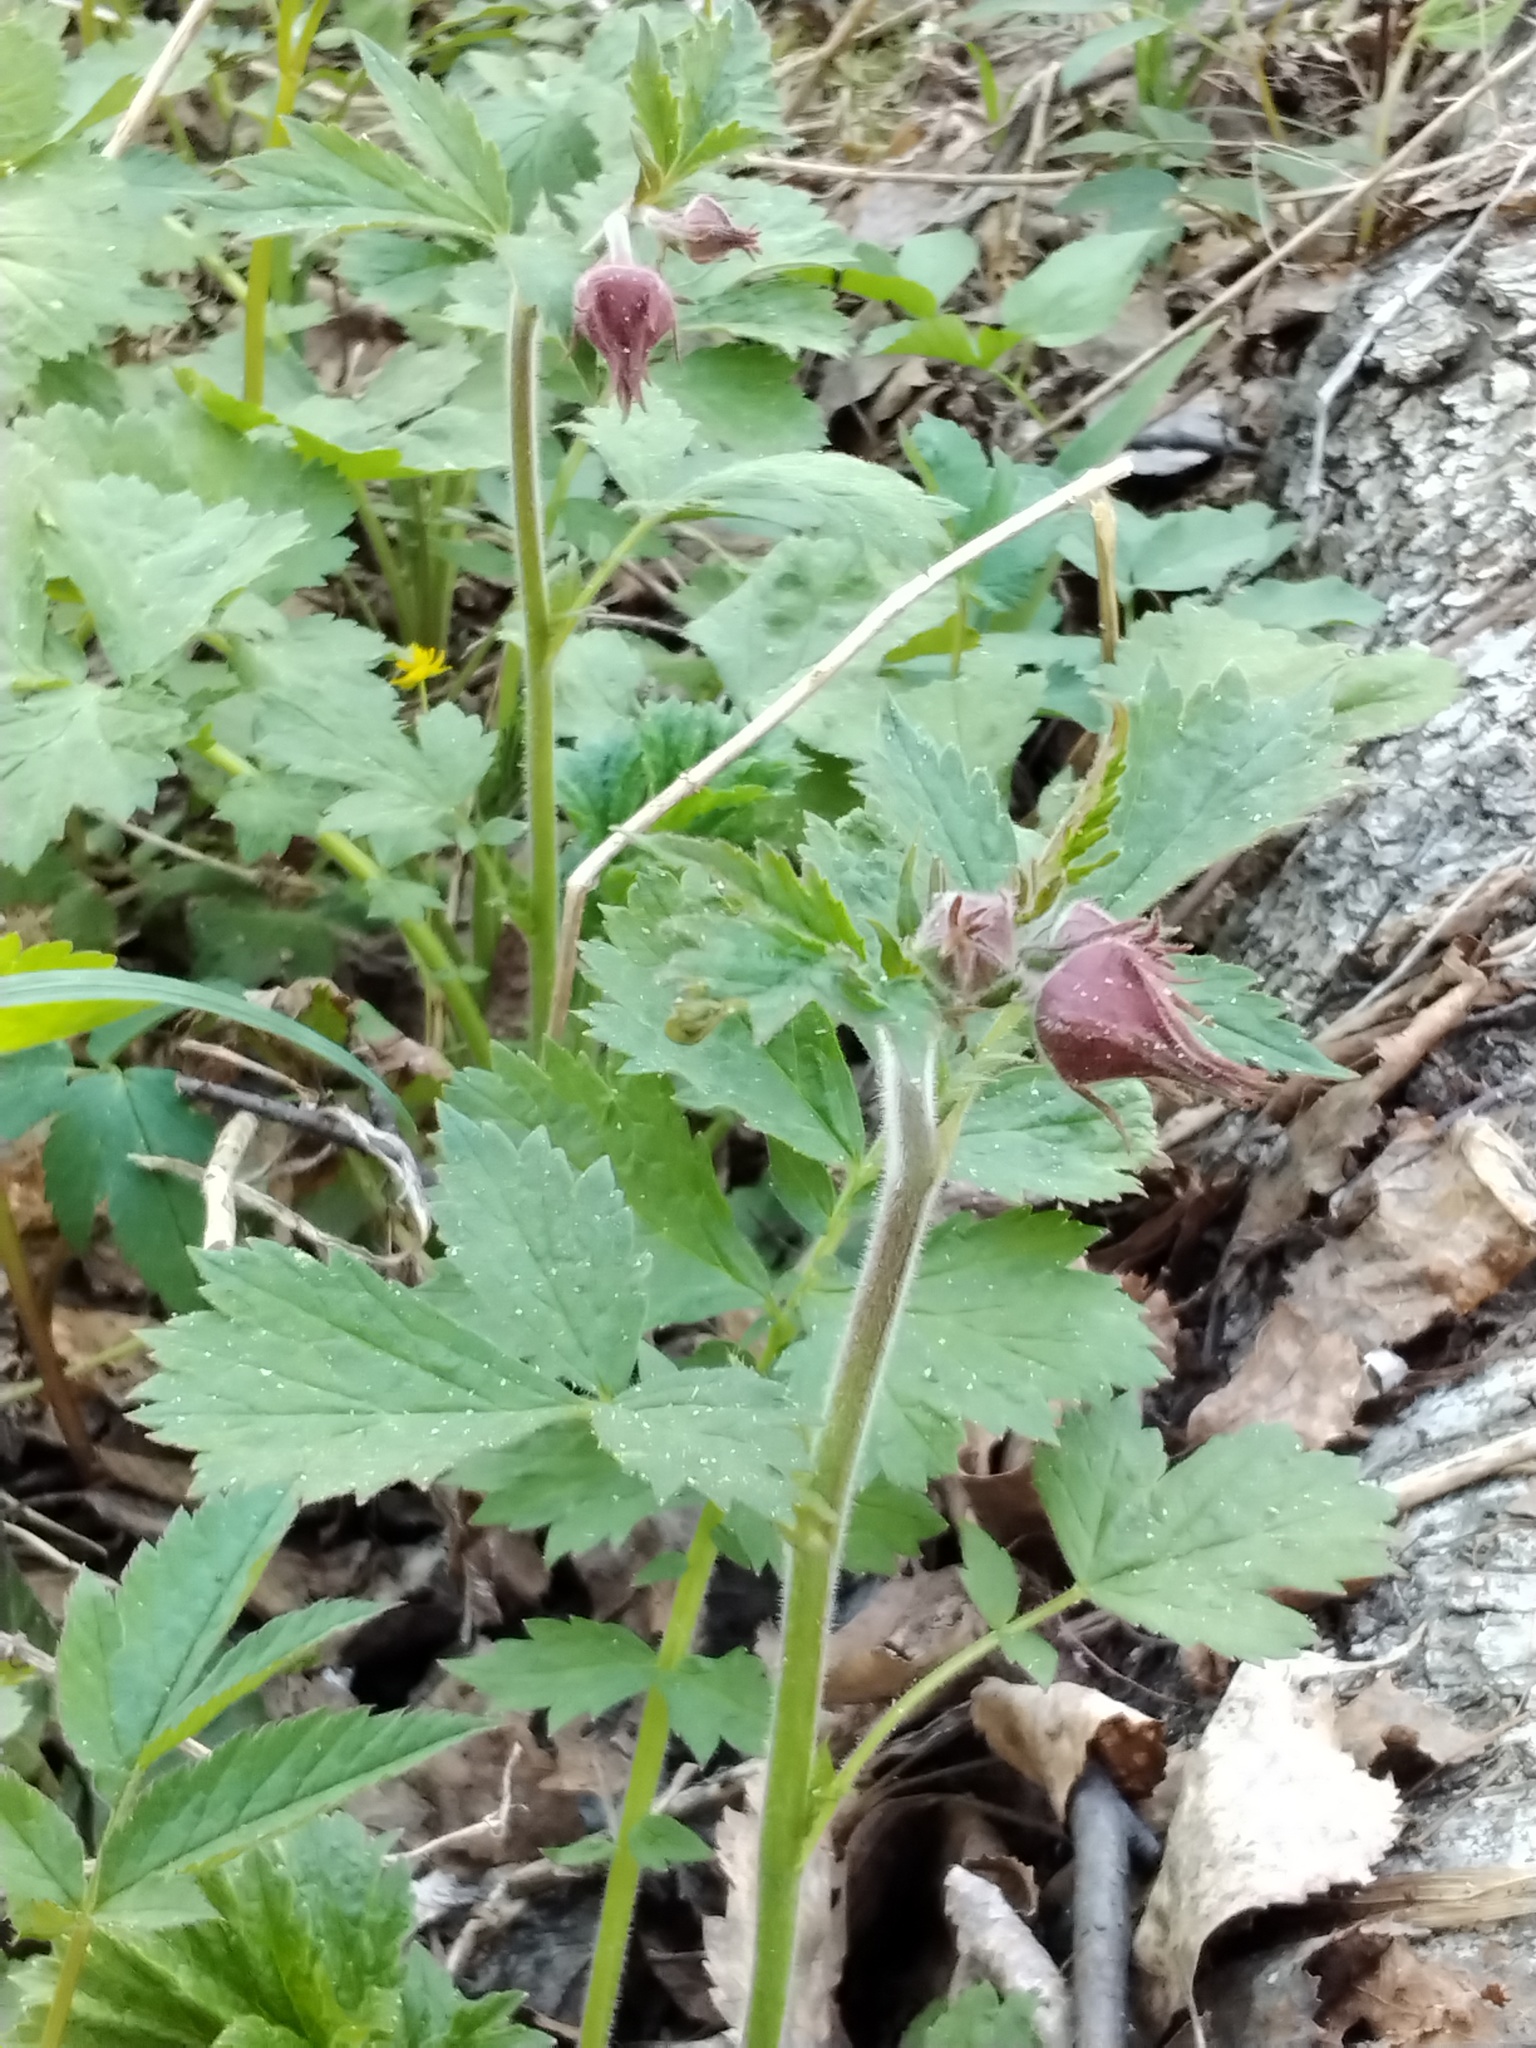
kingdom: Plantae
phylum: Tracheophyta
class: Magnoliopsida
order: Rosales
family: Rosaceae
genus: Geum
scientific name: Geum rivale
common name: Water avens
